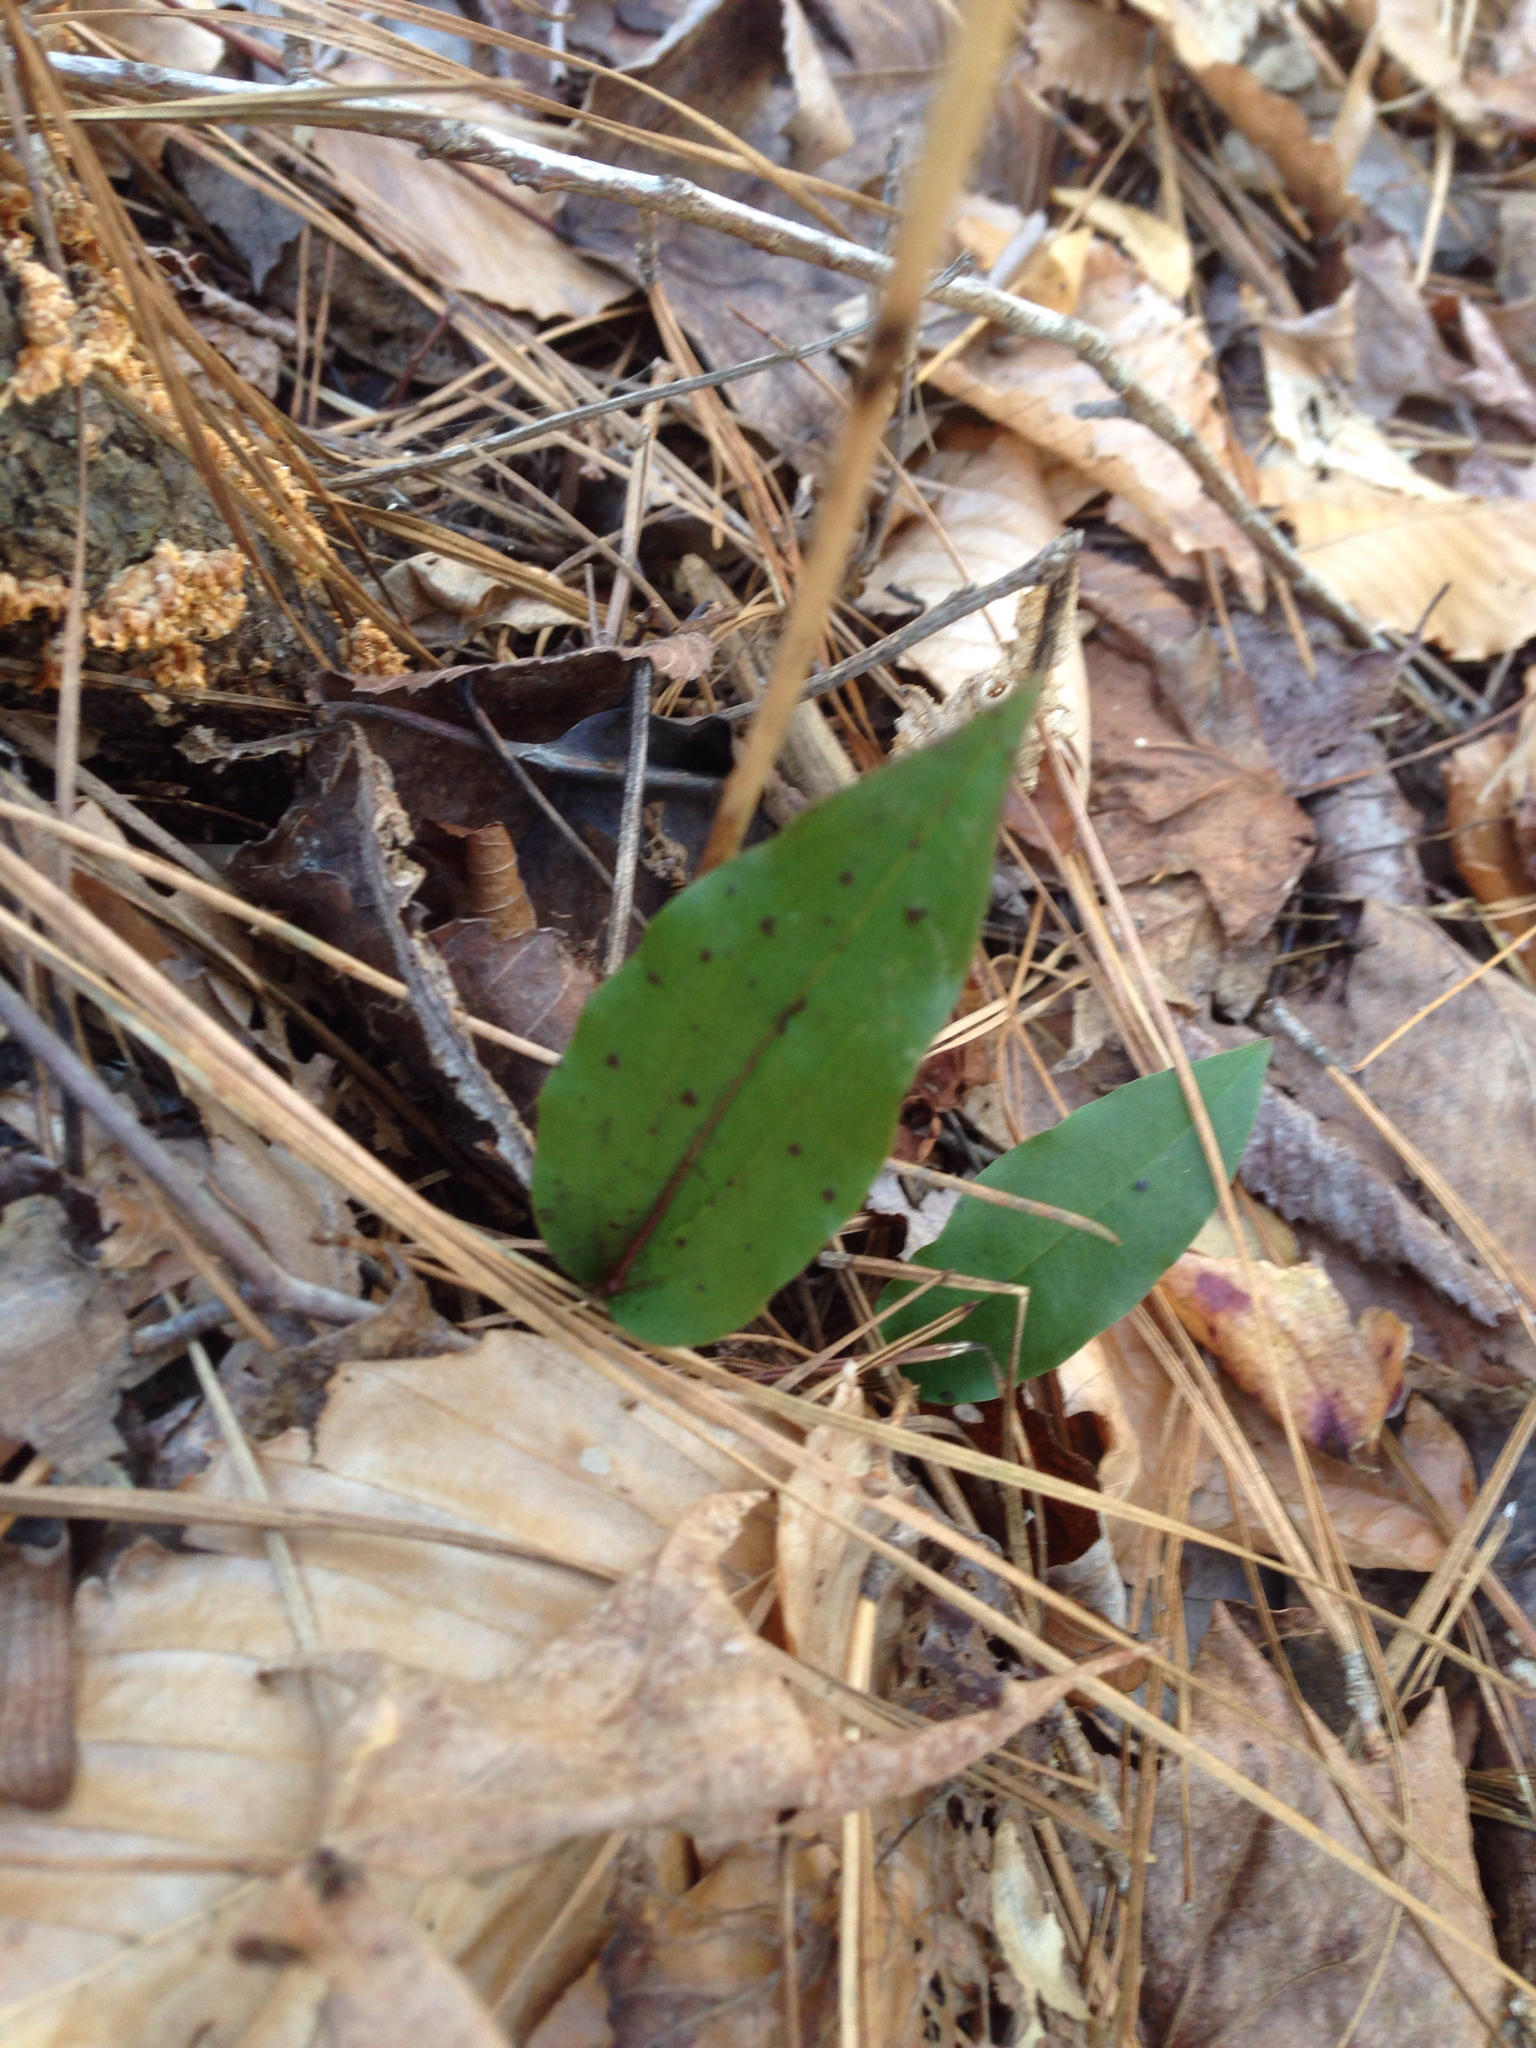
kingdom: Plantae
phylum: Tracheophyta
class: Liliopsida
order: Asparagales
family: Orchidaceae
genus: Tipularia
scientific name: Tipularia discolor
